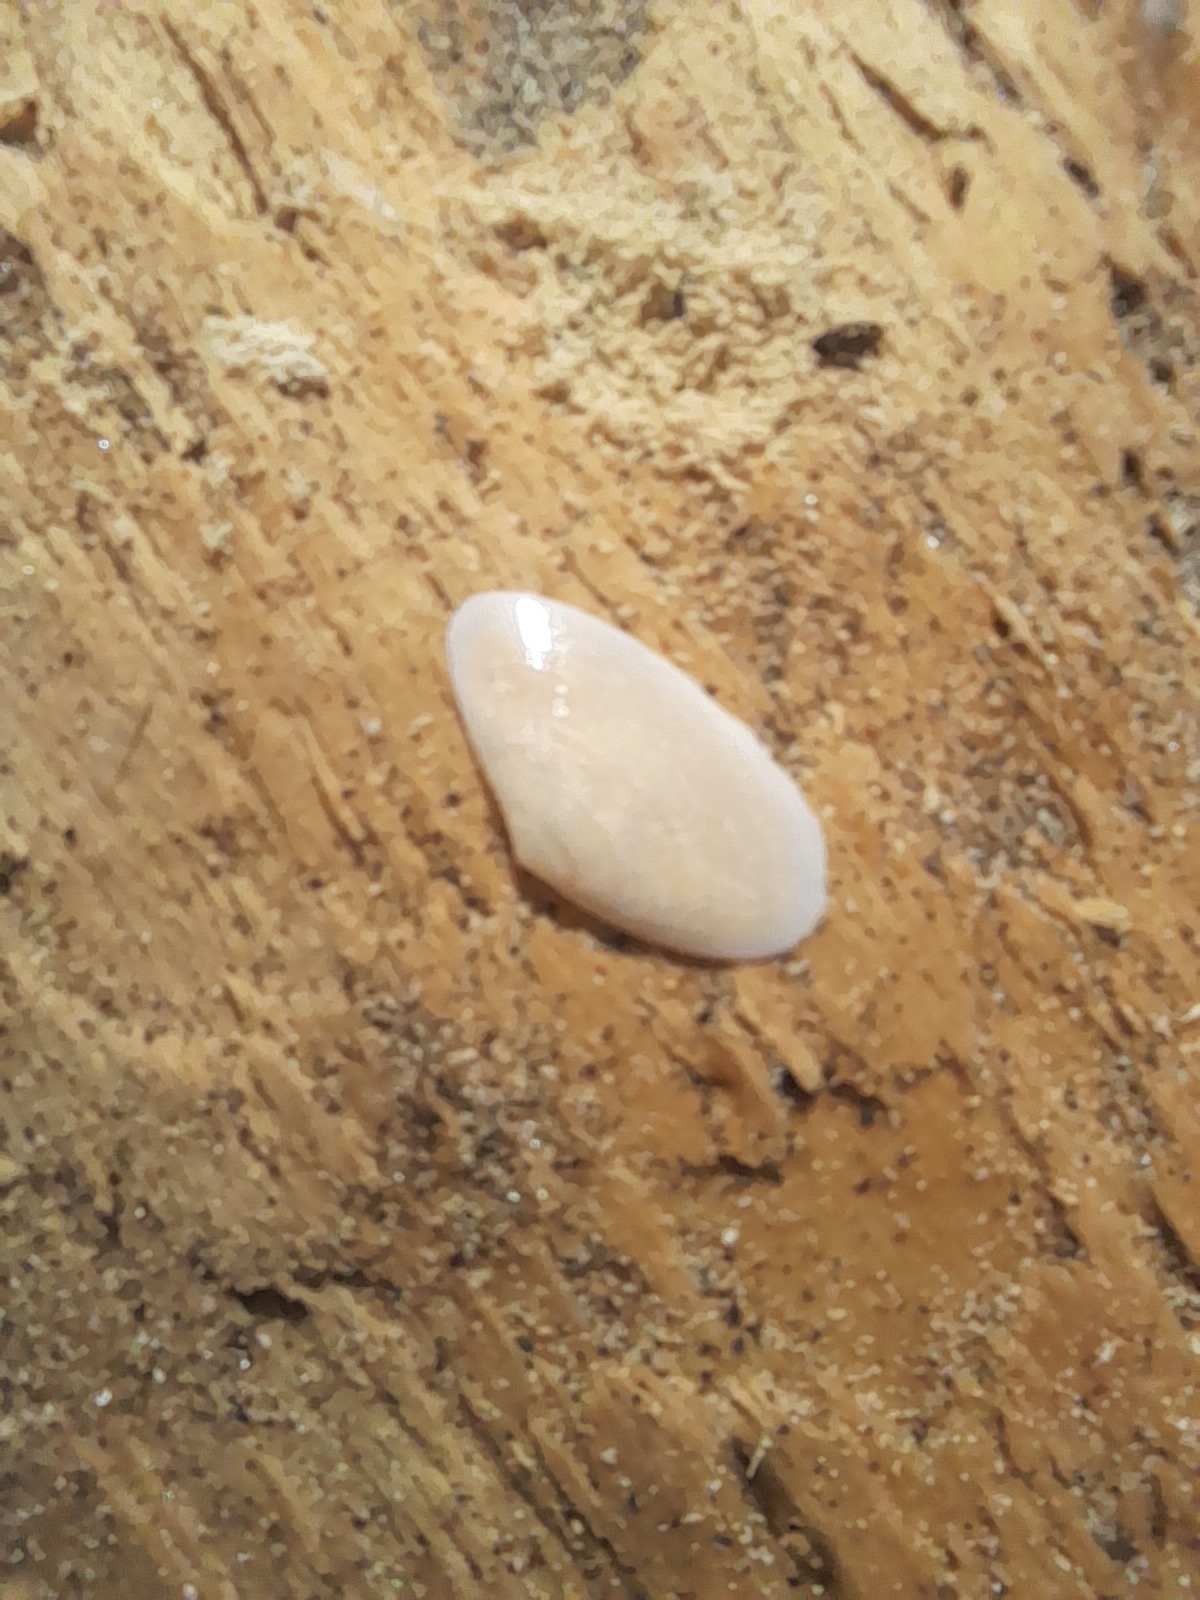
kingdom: Animalia
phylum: Mollusca
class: Bivalvia
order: Cardiida
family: Tellinidae
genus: Peronidia
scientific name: Peronidia albicans
